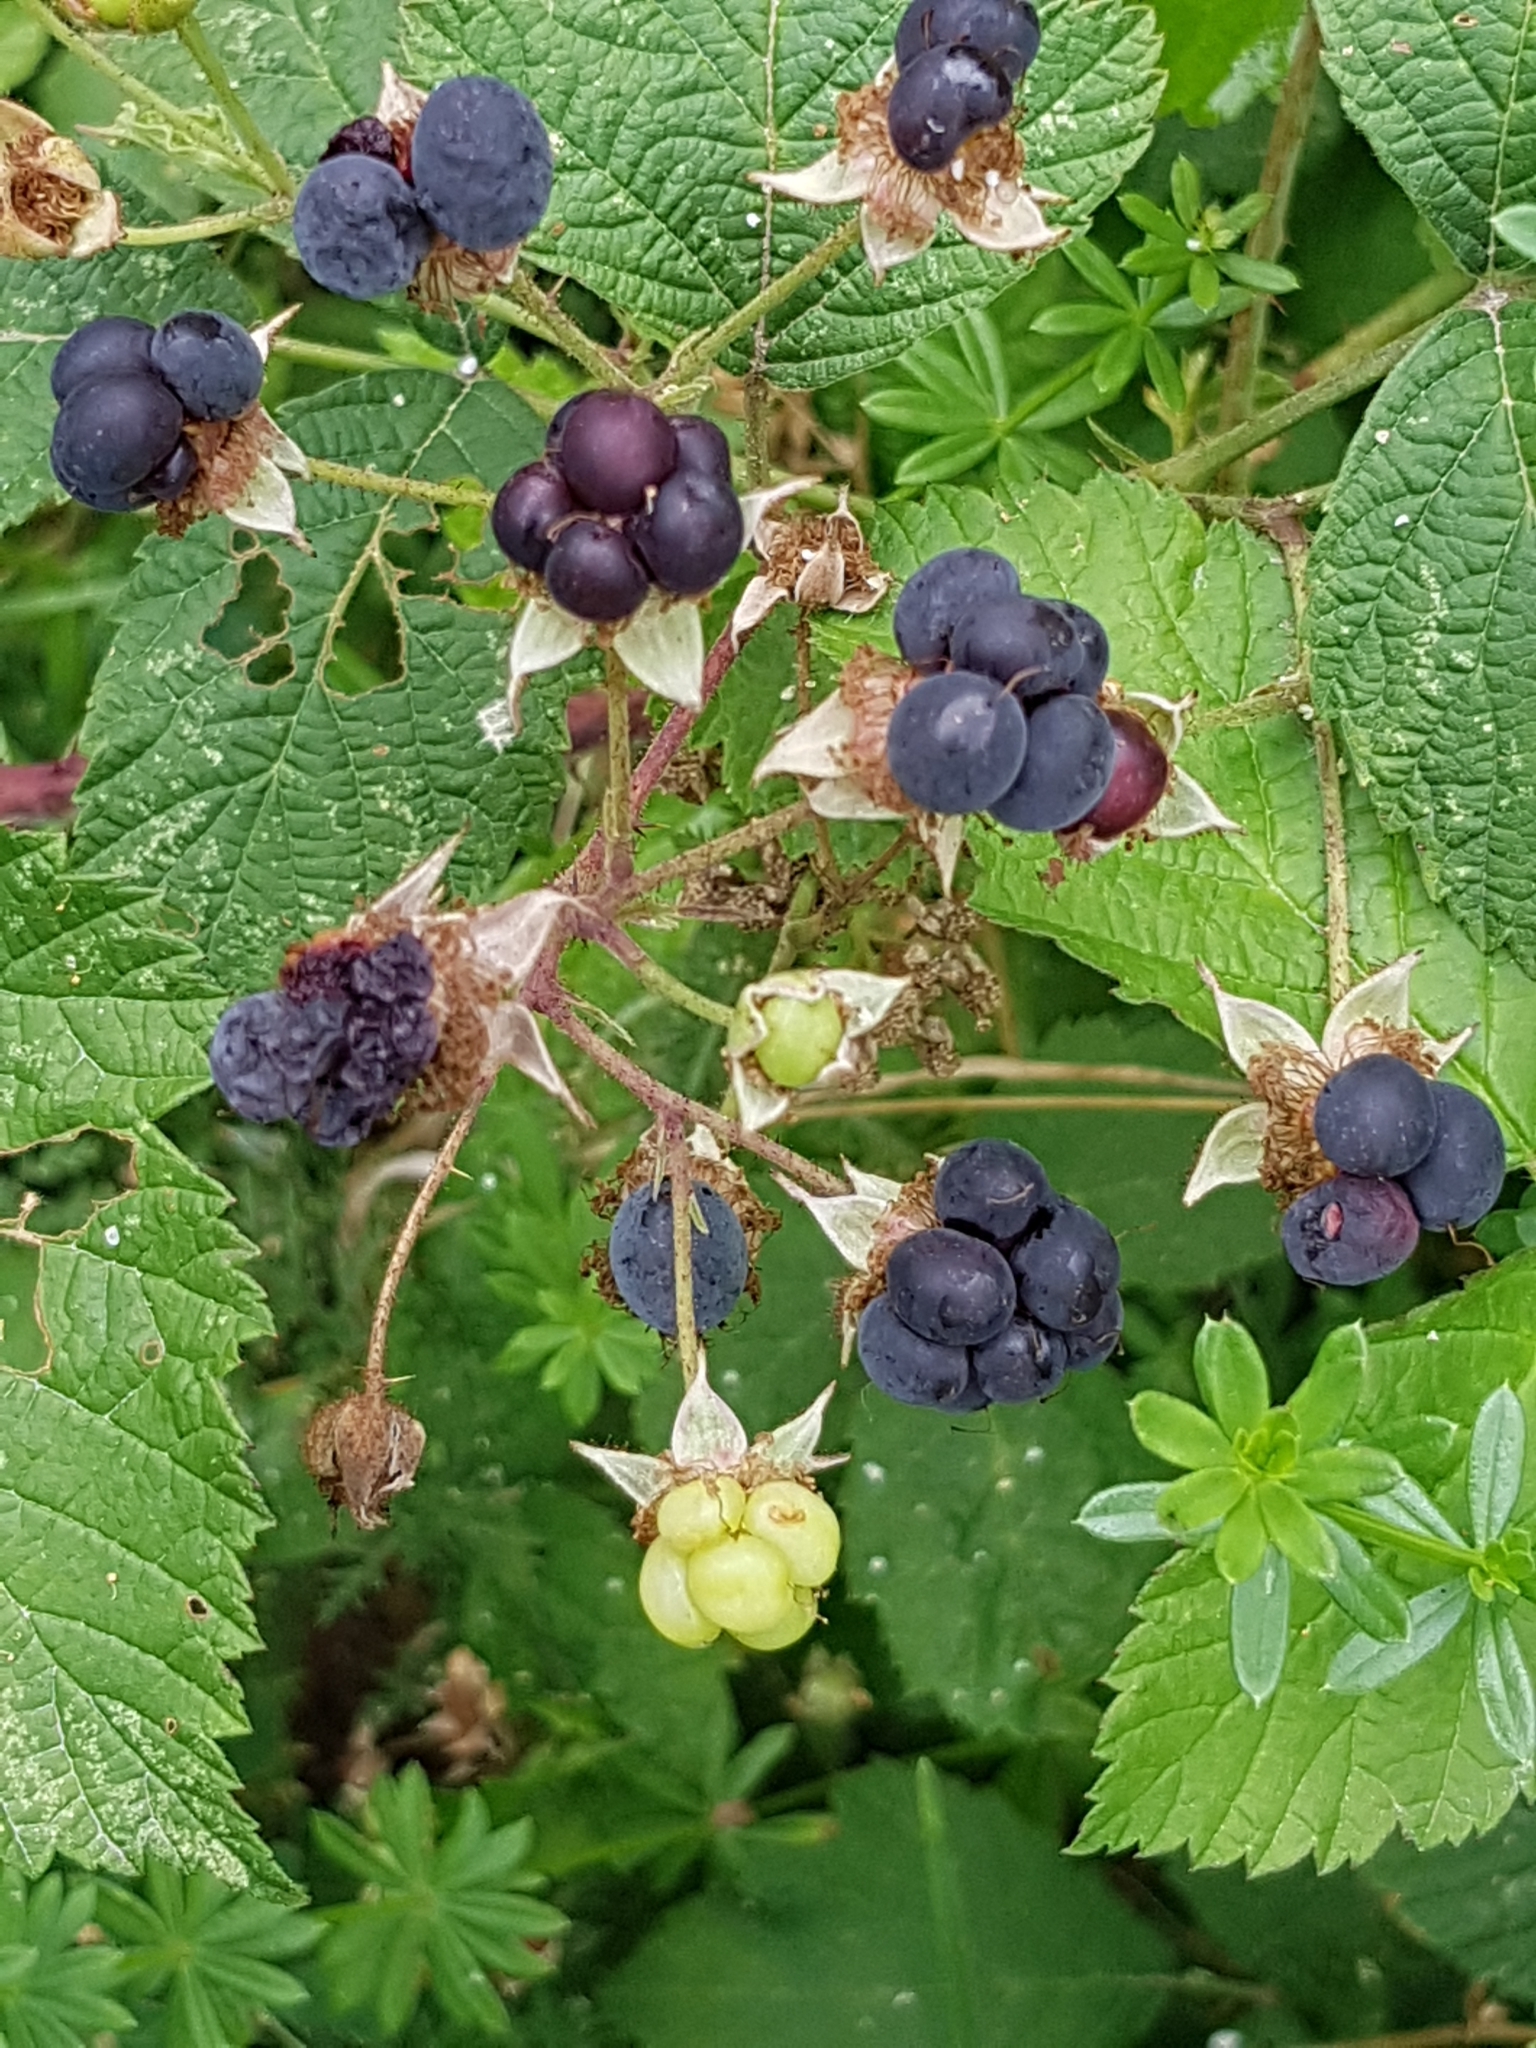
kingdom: Plantae
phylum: Tracheophyta
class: Magnoliopsida
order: Rosales
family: Rosaceae
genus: Rubus
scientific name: Rubus caesius
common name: Dewberry
